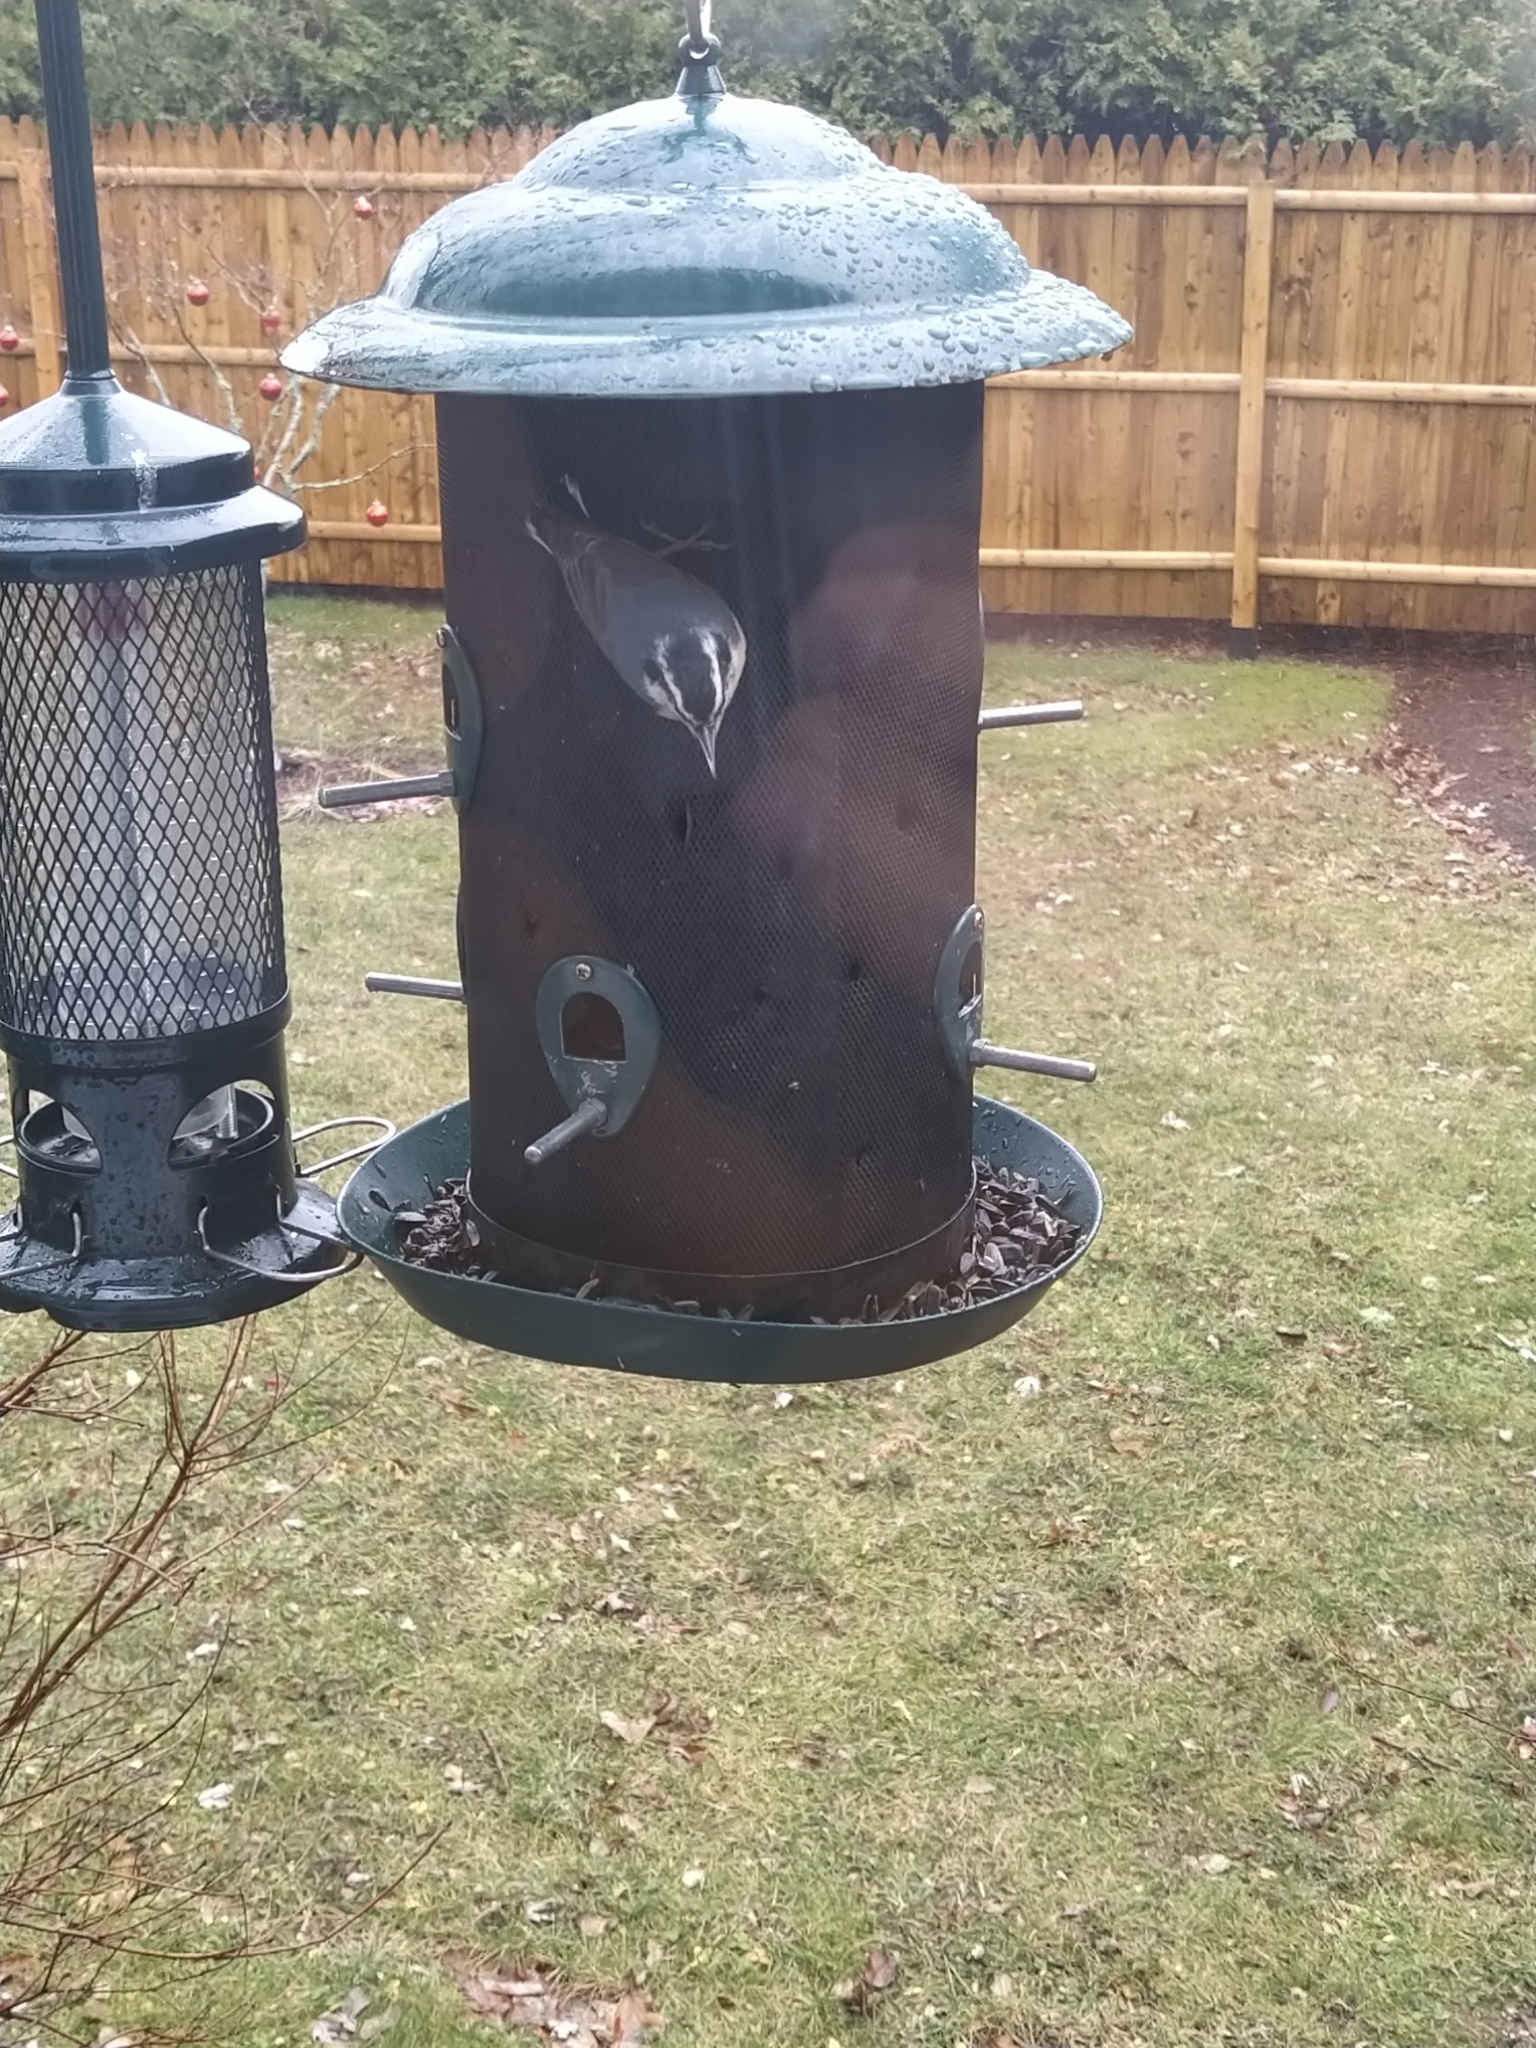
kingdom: Animalia
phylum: Chordata
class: Aves
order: Passeriformes
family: Sittidae
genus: Sitta
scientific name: Sitta canadensis
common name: Red-breasted nuthatch
